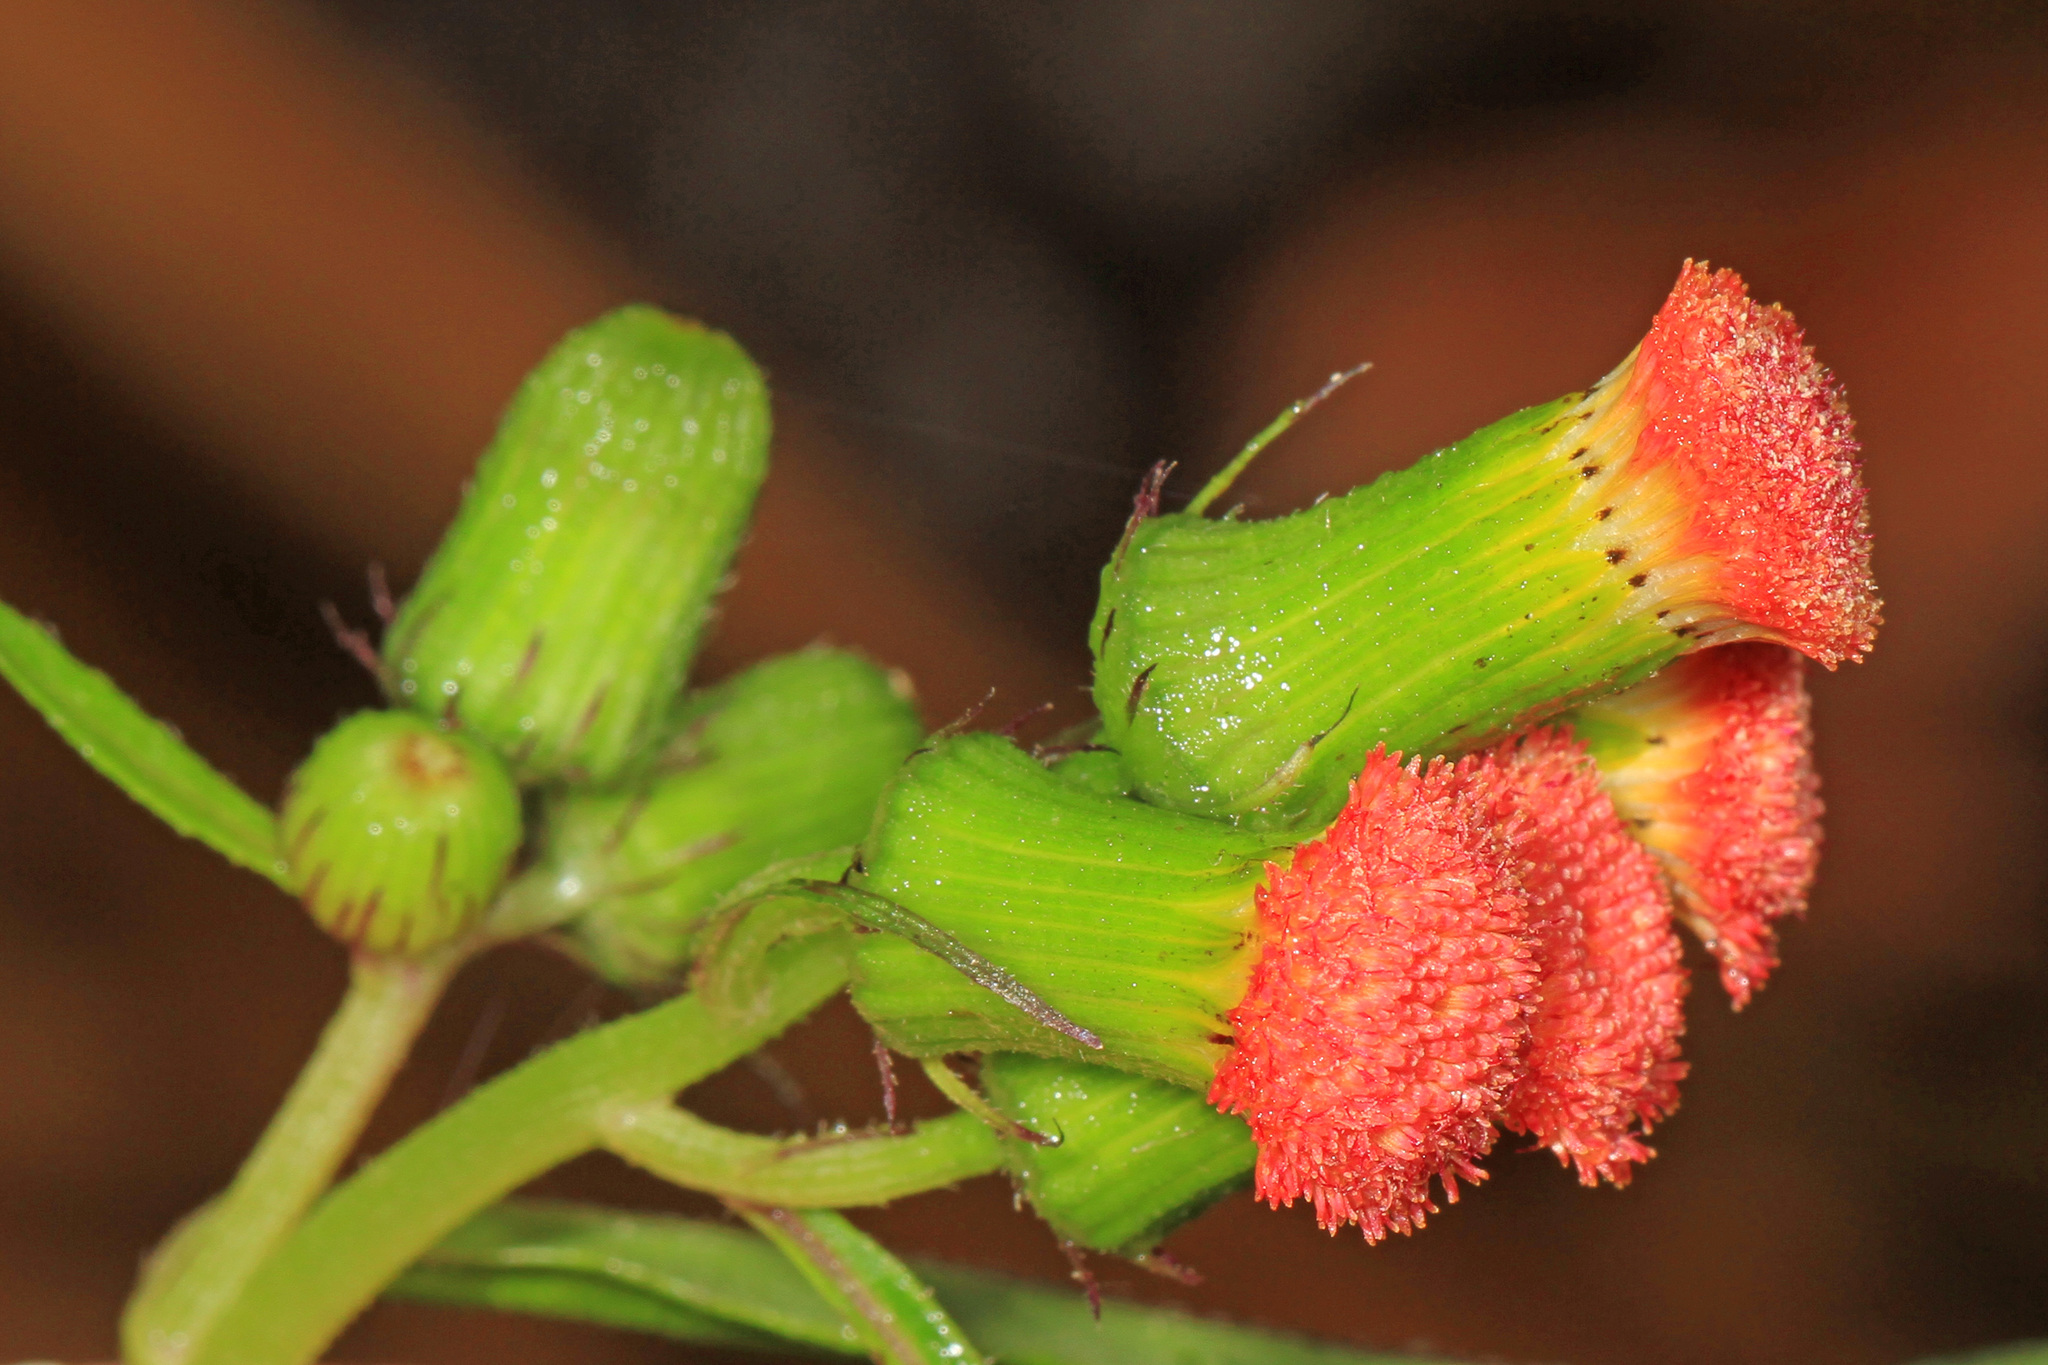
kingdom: Plantae
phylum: Tracheophyta
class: Magnoliopsida
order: Asterales
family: Asteraceae
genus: Crassocephalum
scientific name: Crassocephalum crepidioides
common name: Redflower ragleaf
